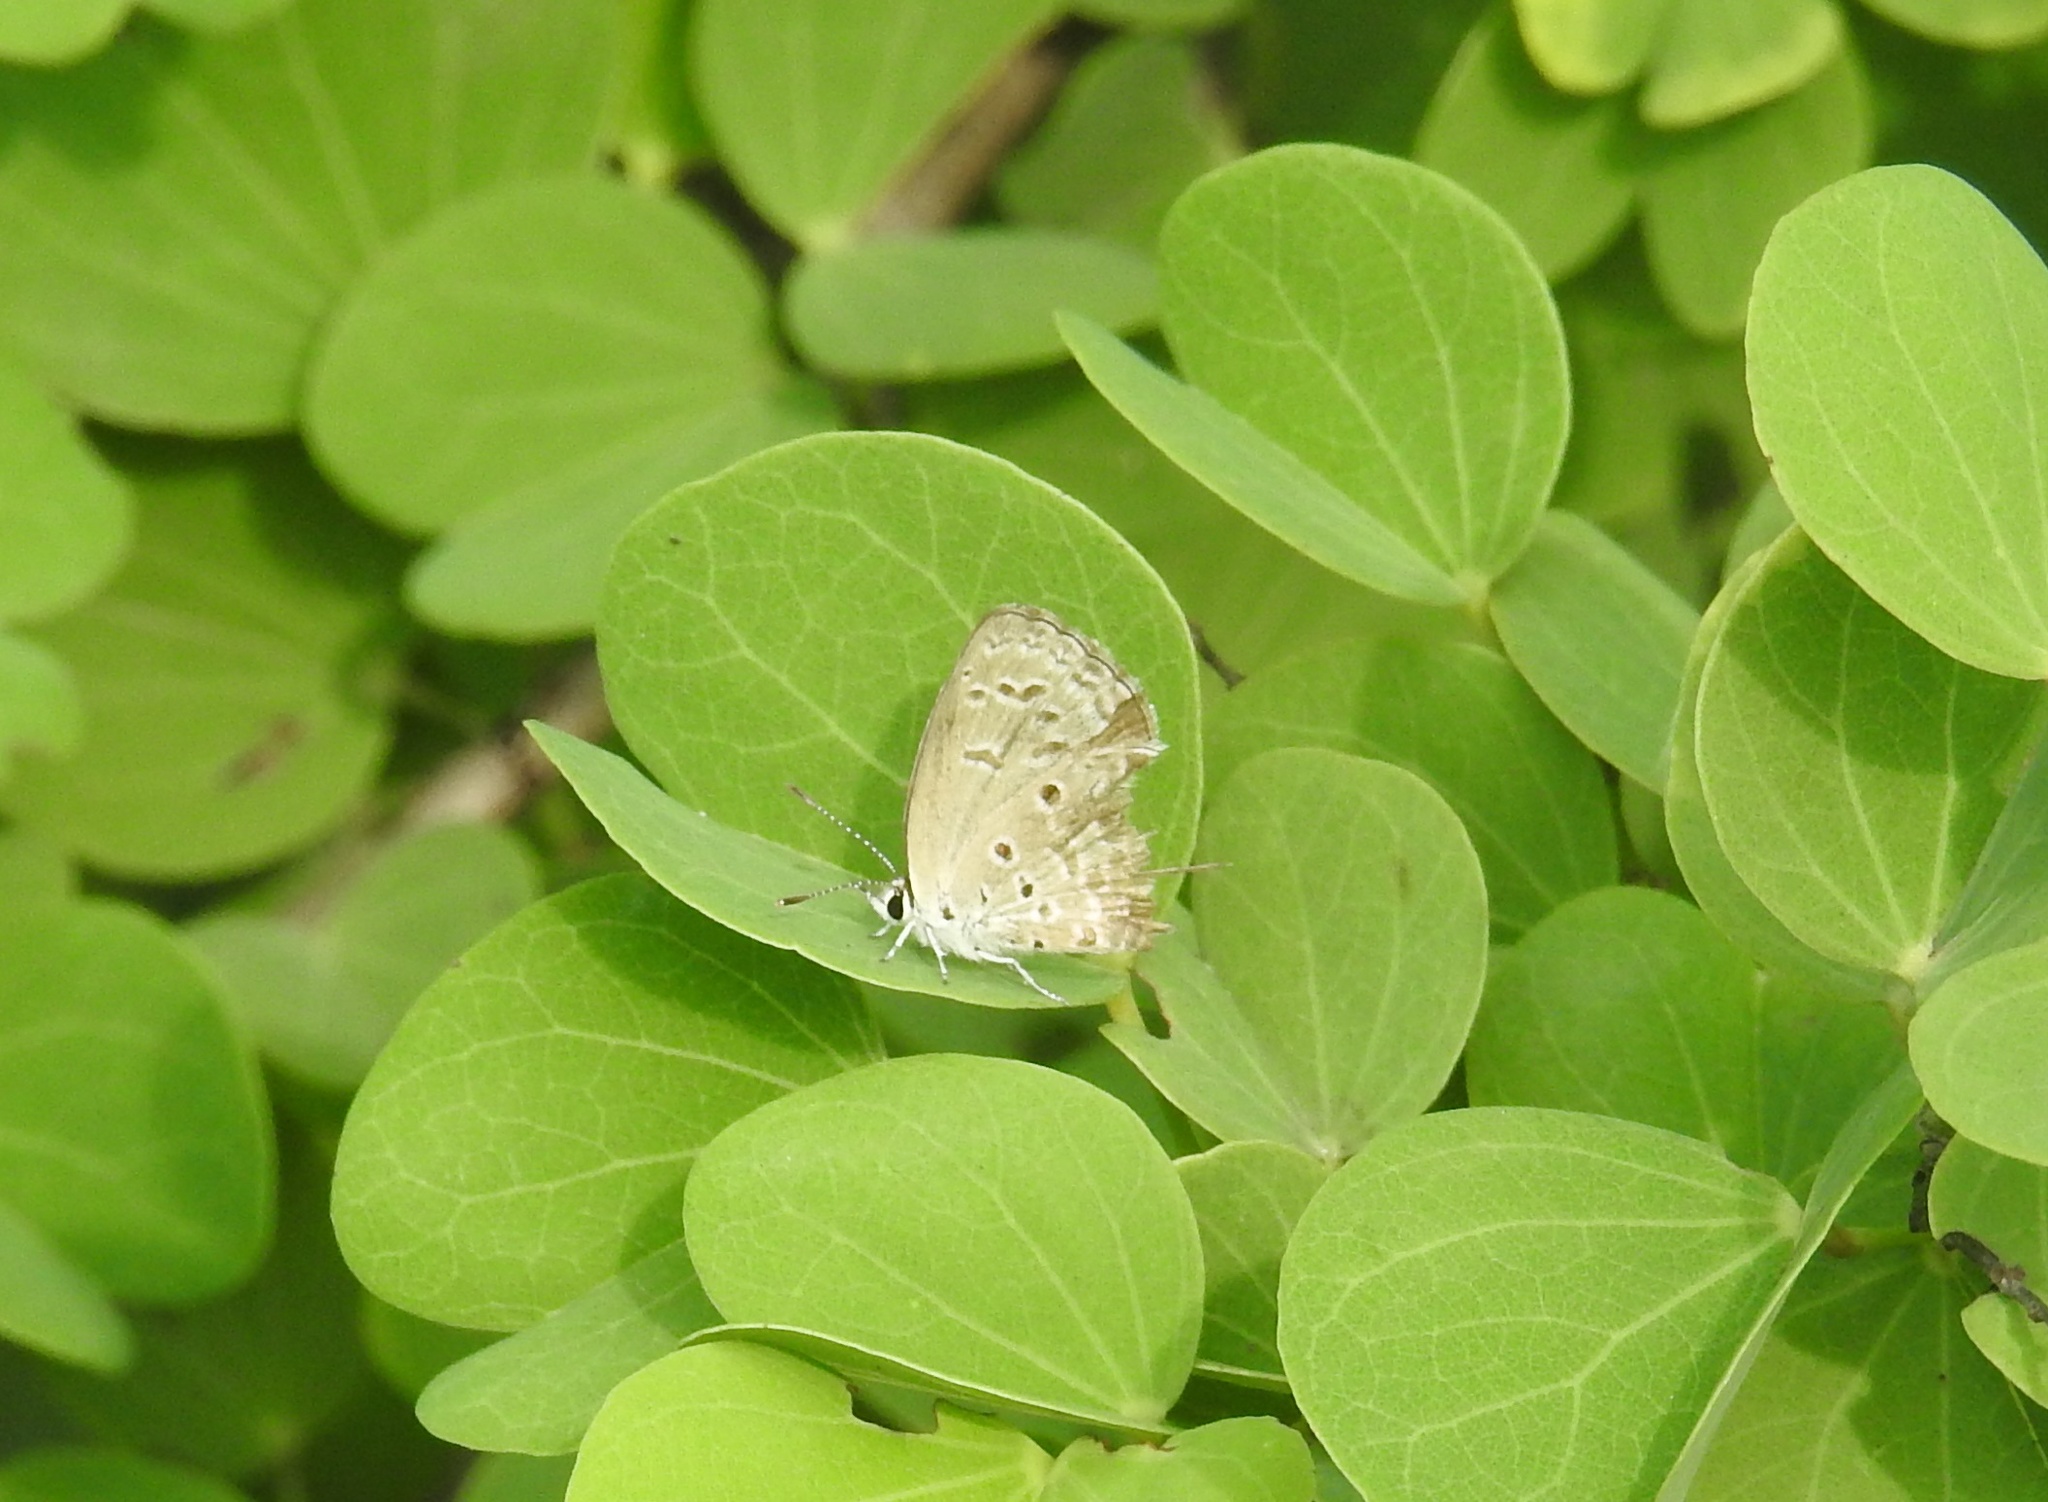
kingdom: Animalia
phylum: Arthropoda
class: Insecta
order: Lepidoptera
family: Lycaenidae
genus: Chilades
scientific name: Chilades laius
